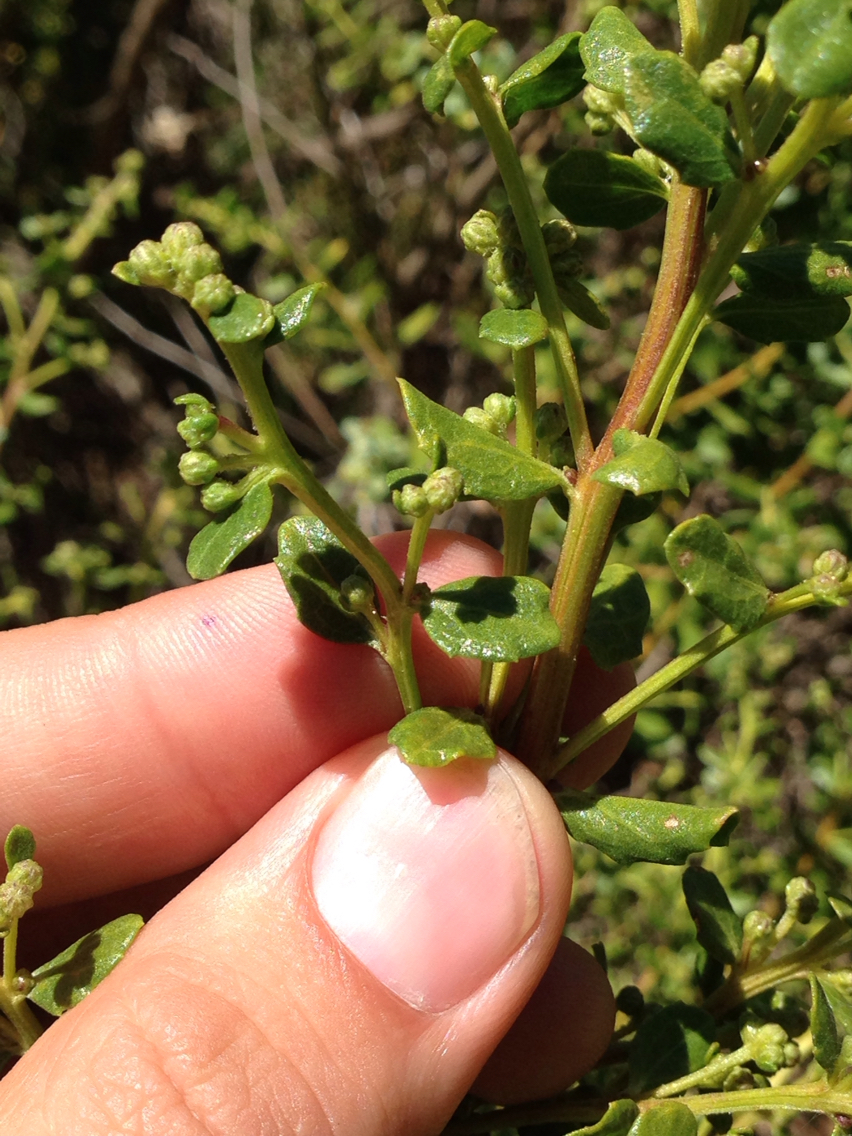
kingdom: Plantae
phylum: Tracheophyta
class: Magnoliopsida
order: Asterales
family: Asteraceae
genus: Baccharis
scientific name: Baccharis pilularis
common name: Coyotebrush
